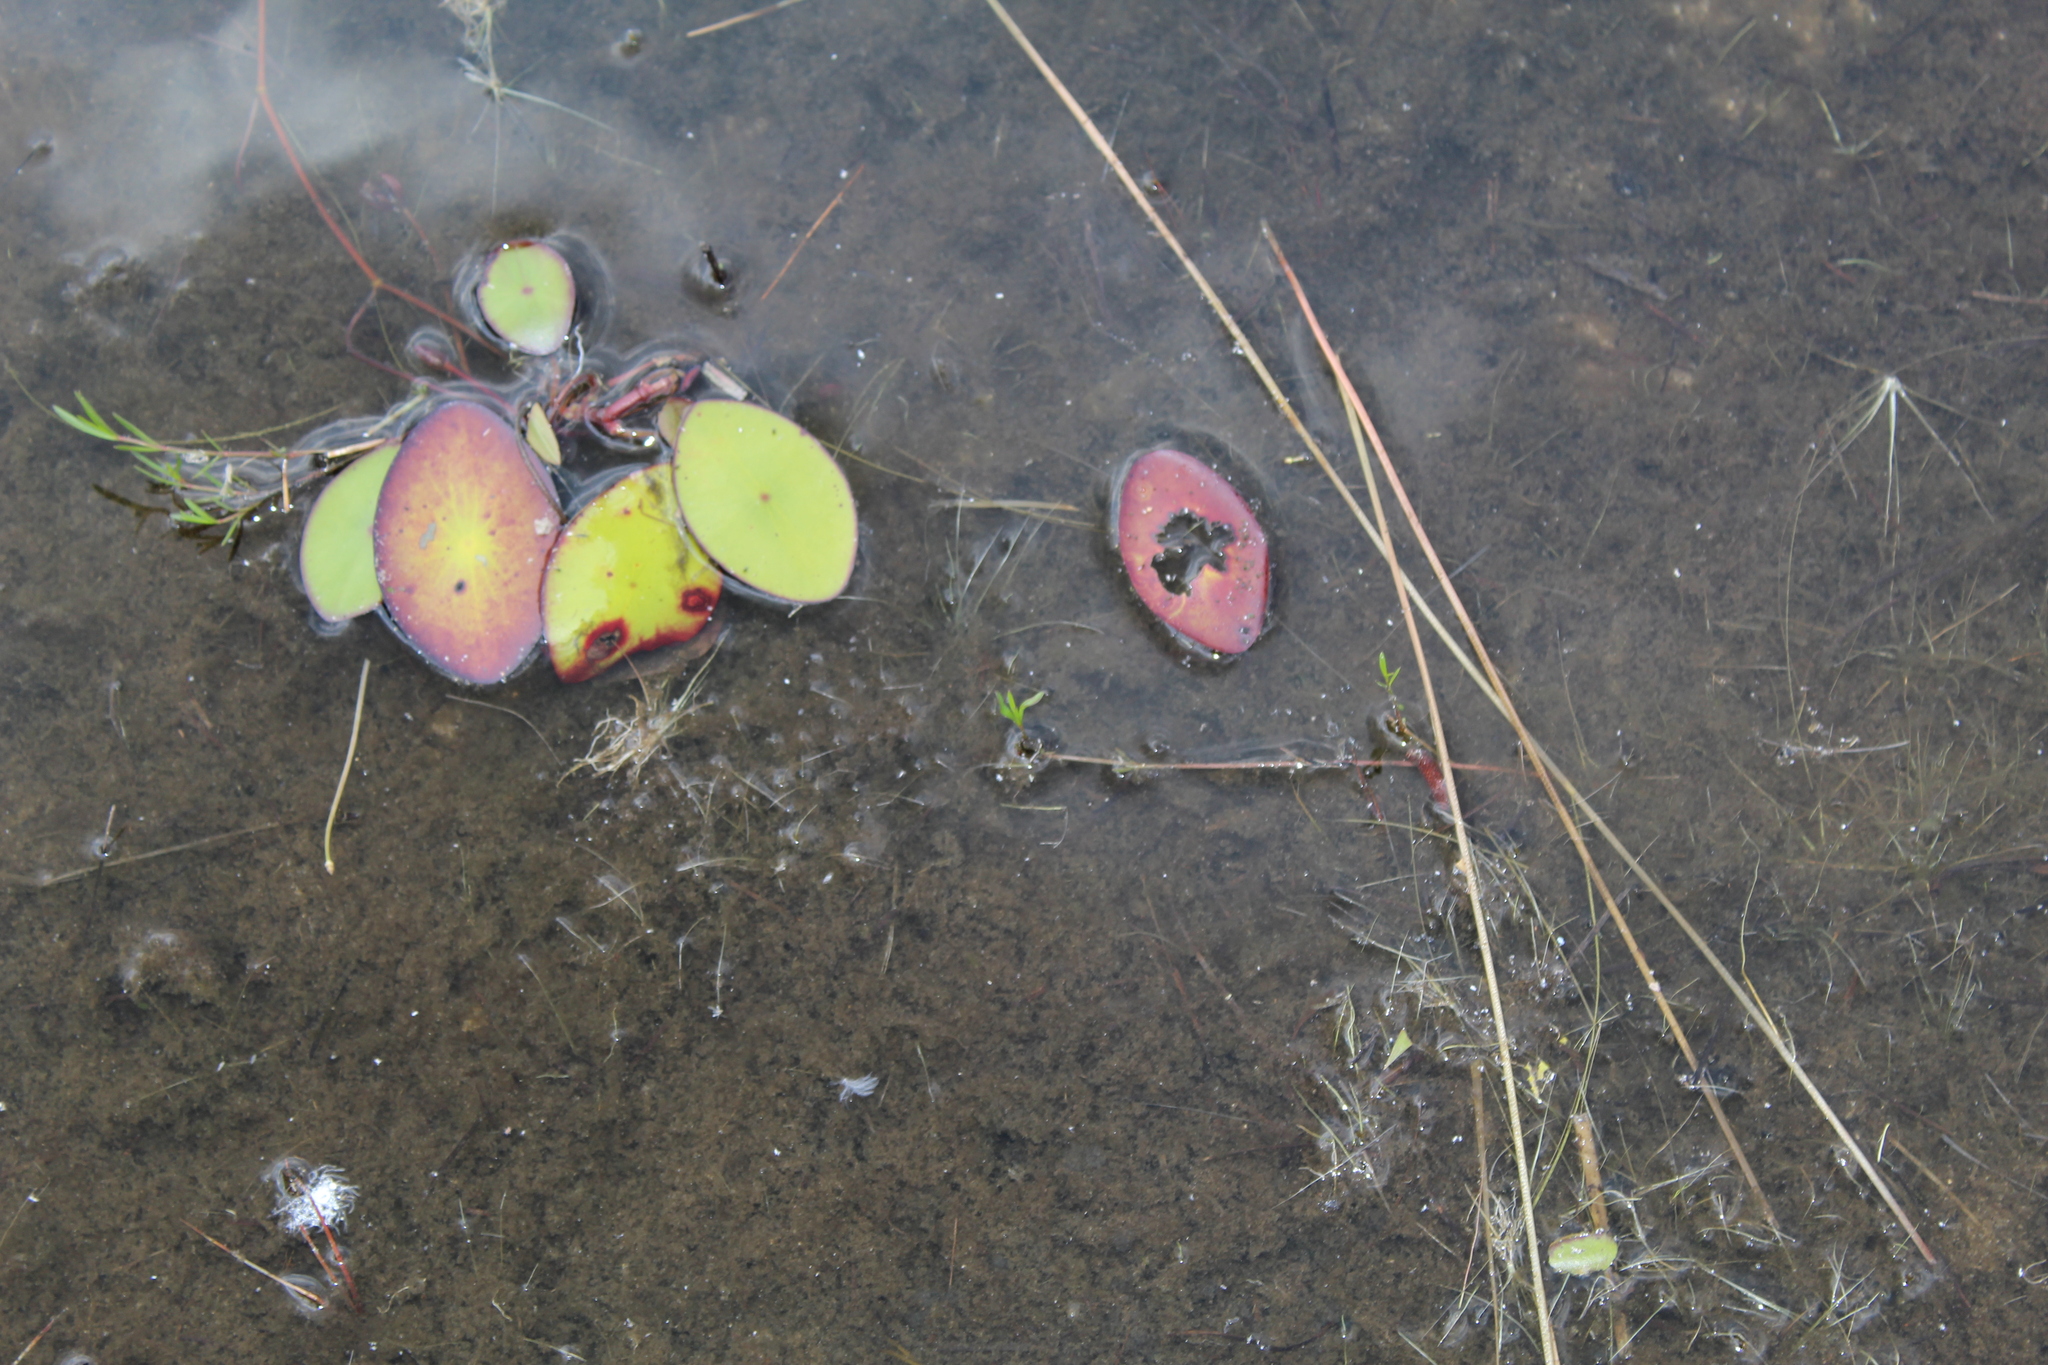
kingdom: Plantae
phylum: Tracheophyta
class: Magnoliopsida
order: Nymphaeales
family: Cabombaceae
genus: Brasenia
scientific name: Brasenia schreberi
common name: Water-shield
